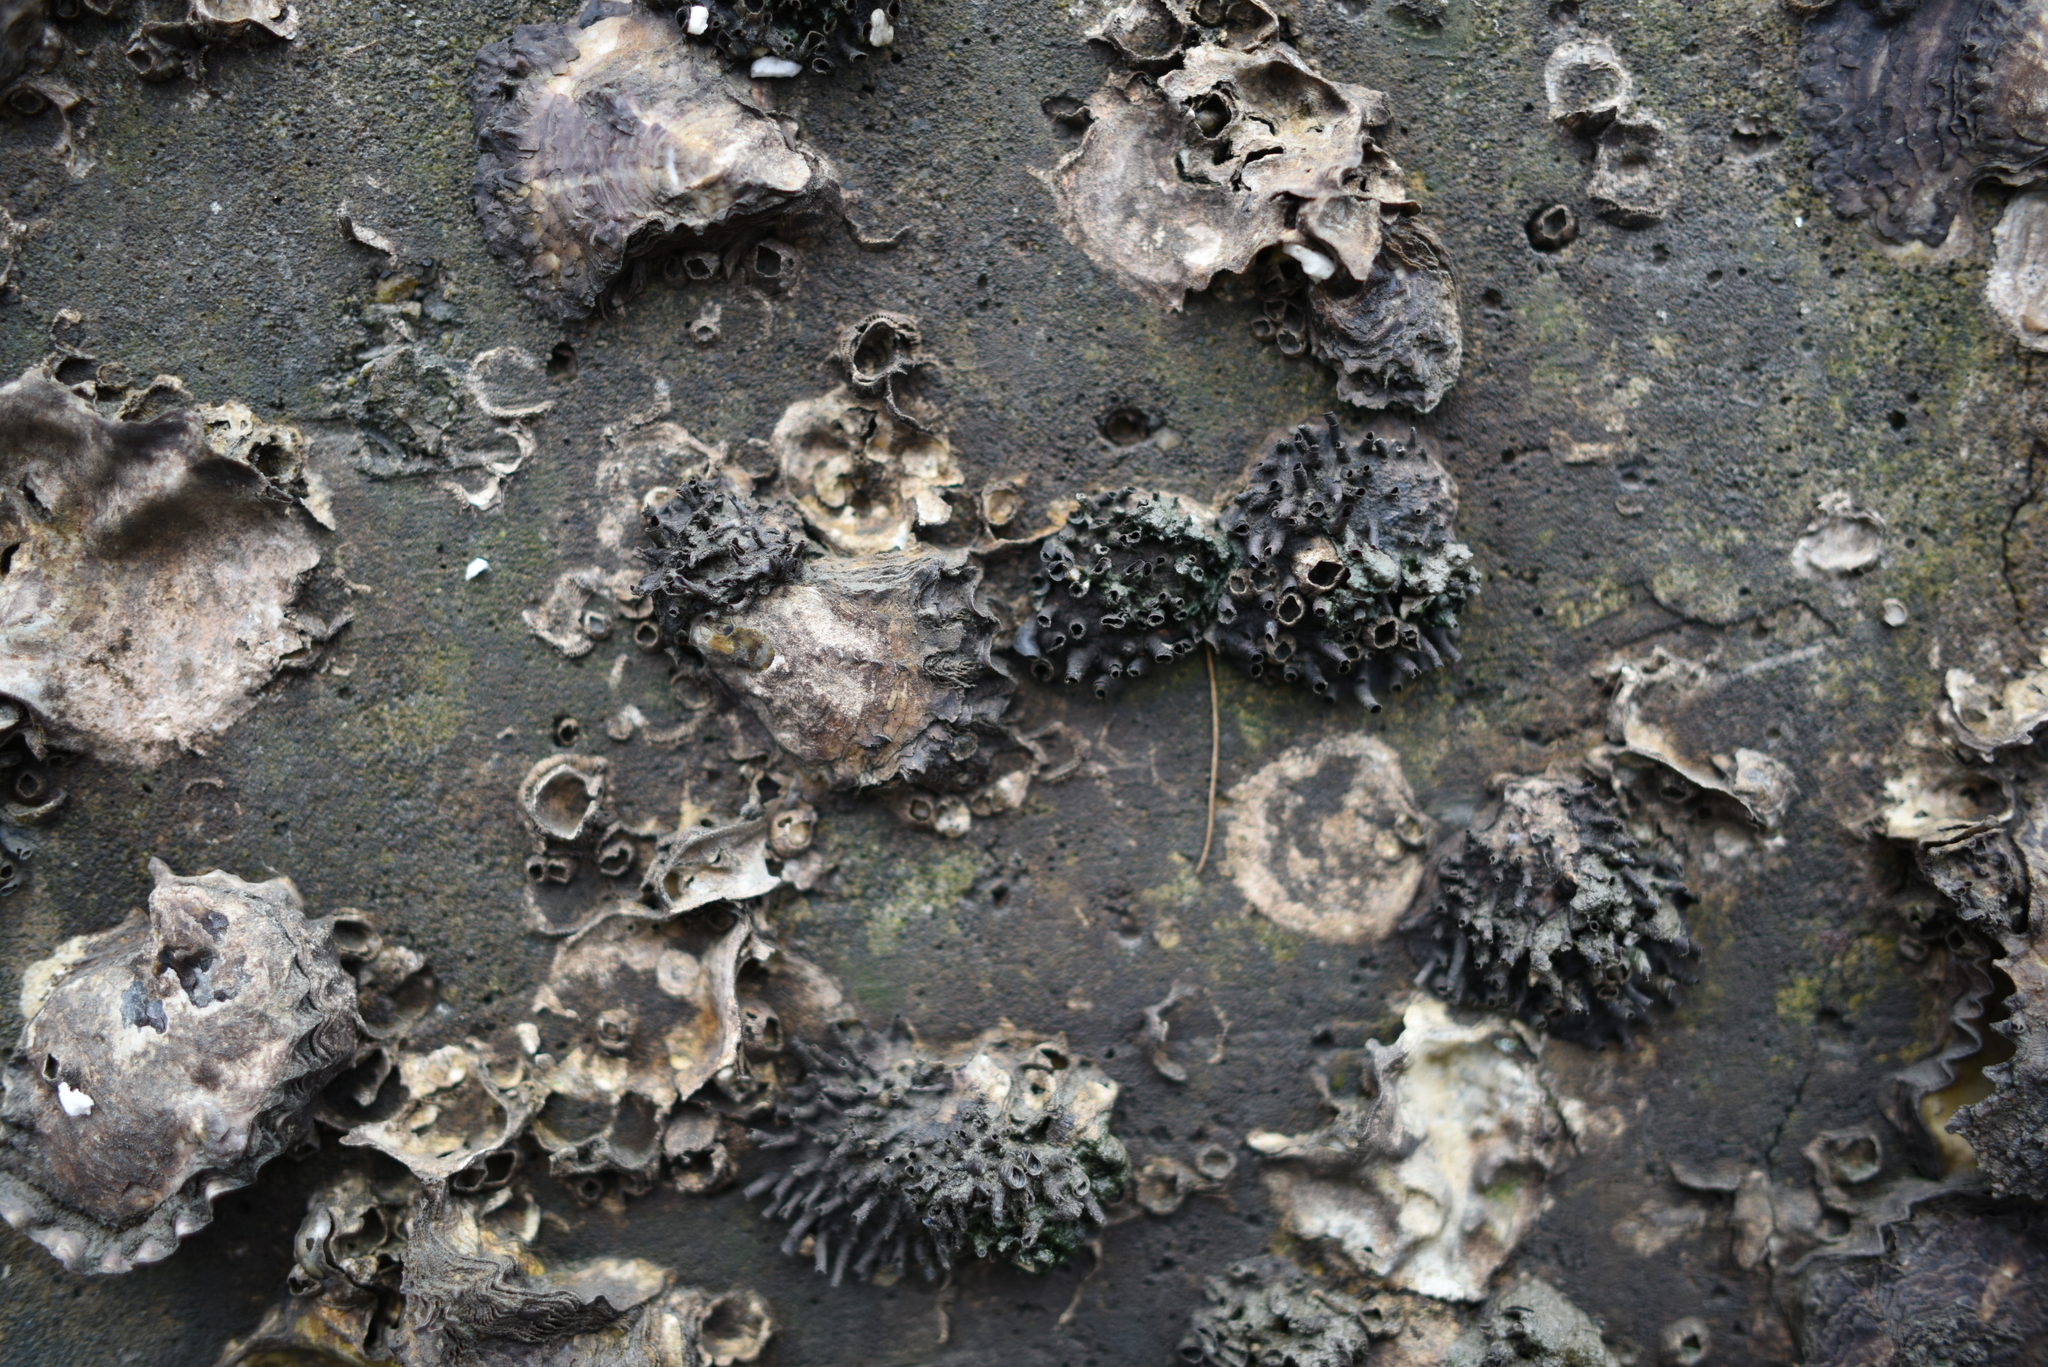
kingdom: Animalia
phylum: Mollusca
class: Bivalvia
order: Ostreida
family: Ostreidae
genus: Saccostrea
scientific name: Saccostrea echinata
